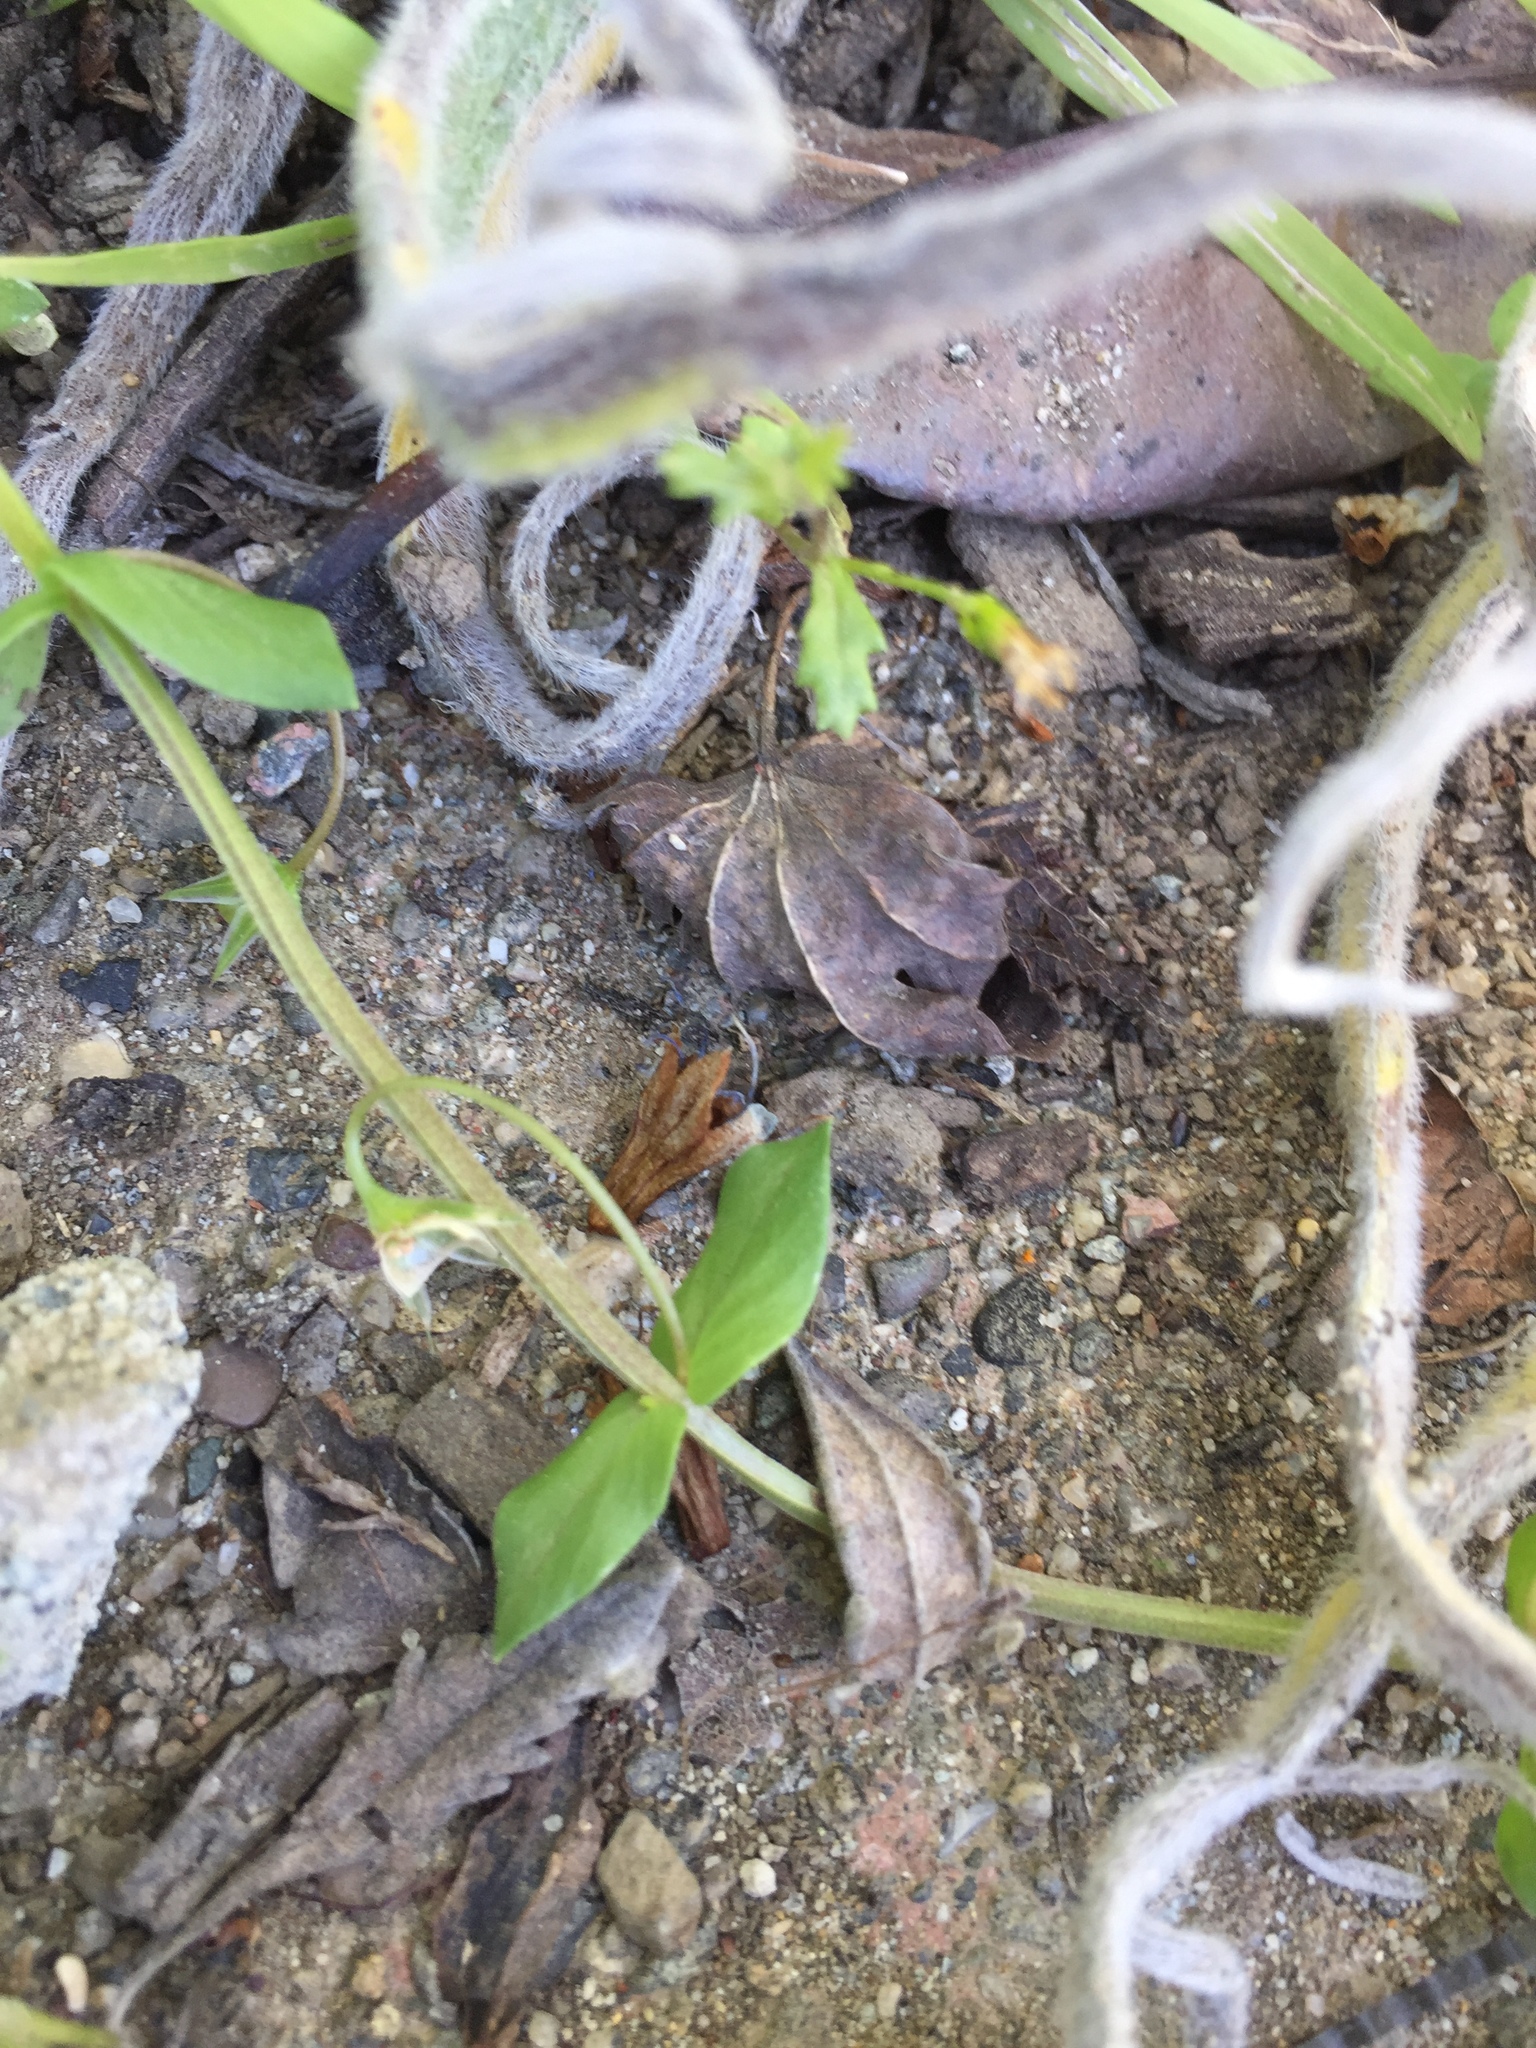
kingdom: Plantae
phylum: Tracheophyta
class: Magnoliopsida
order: Ericales
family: Primulaceae
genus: Lysimachia
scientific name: Lysimachia arvensis
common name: Scarlet pimpernel
